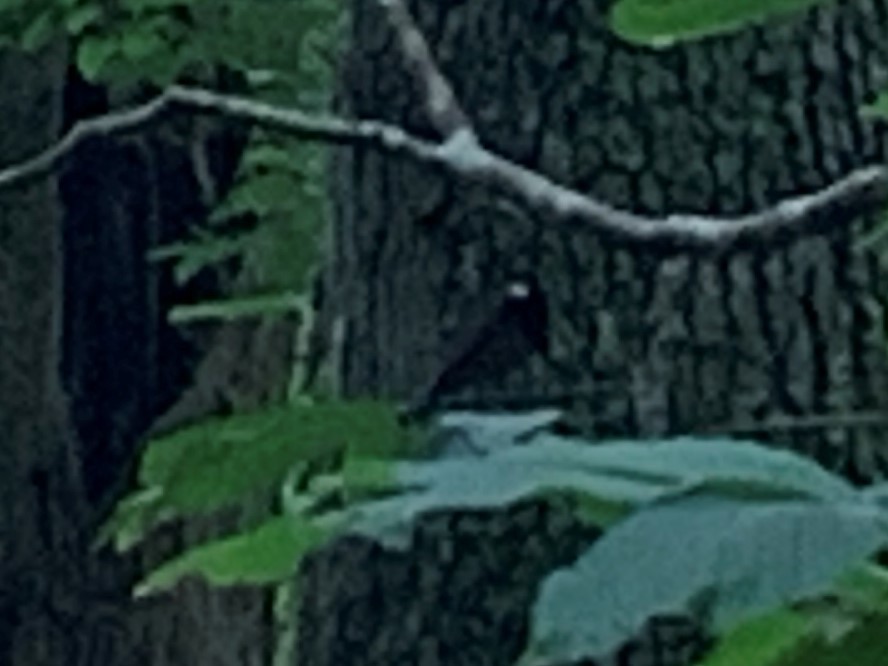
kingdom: Animalia
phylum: Arthropoda
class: Insecta
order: Odonata
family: Calopterygidae
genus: Calopteryx
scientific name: Calopteryx maculata
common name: Ebony jewelwing
